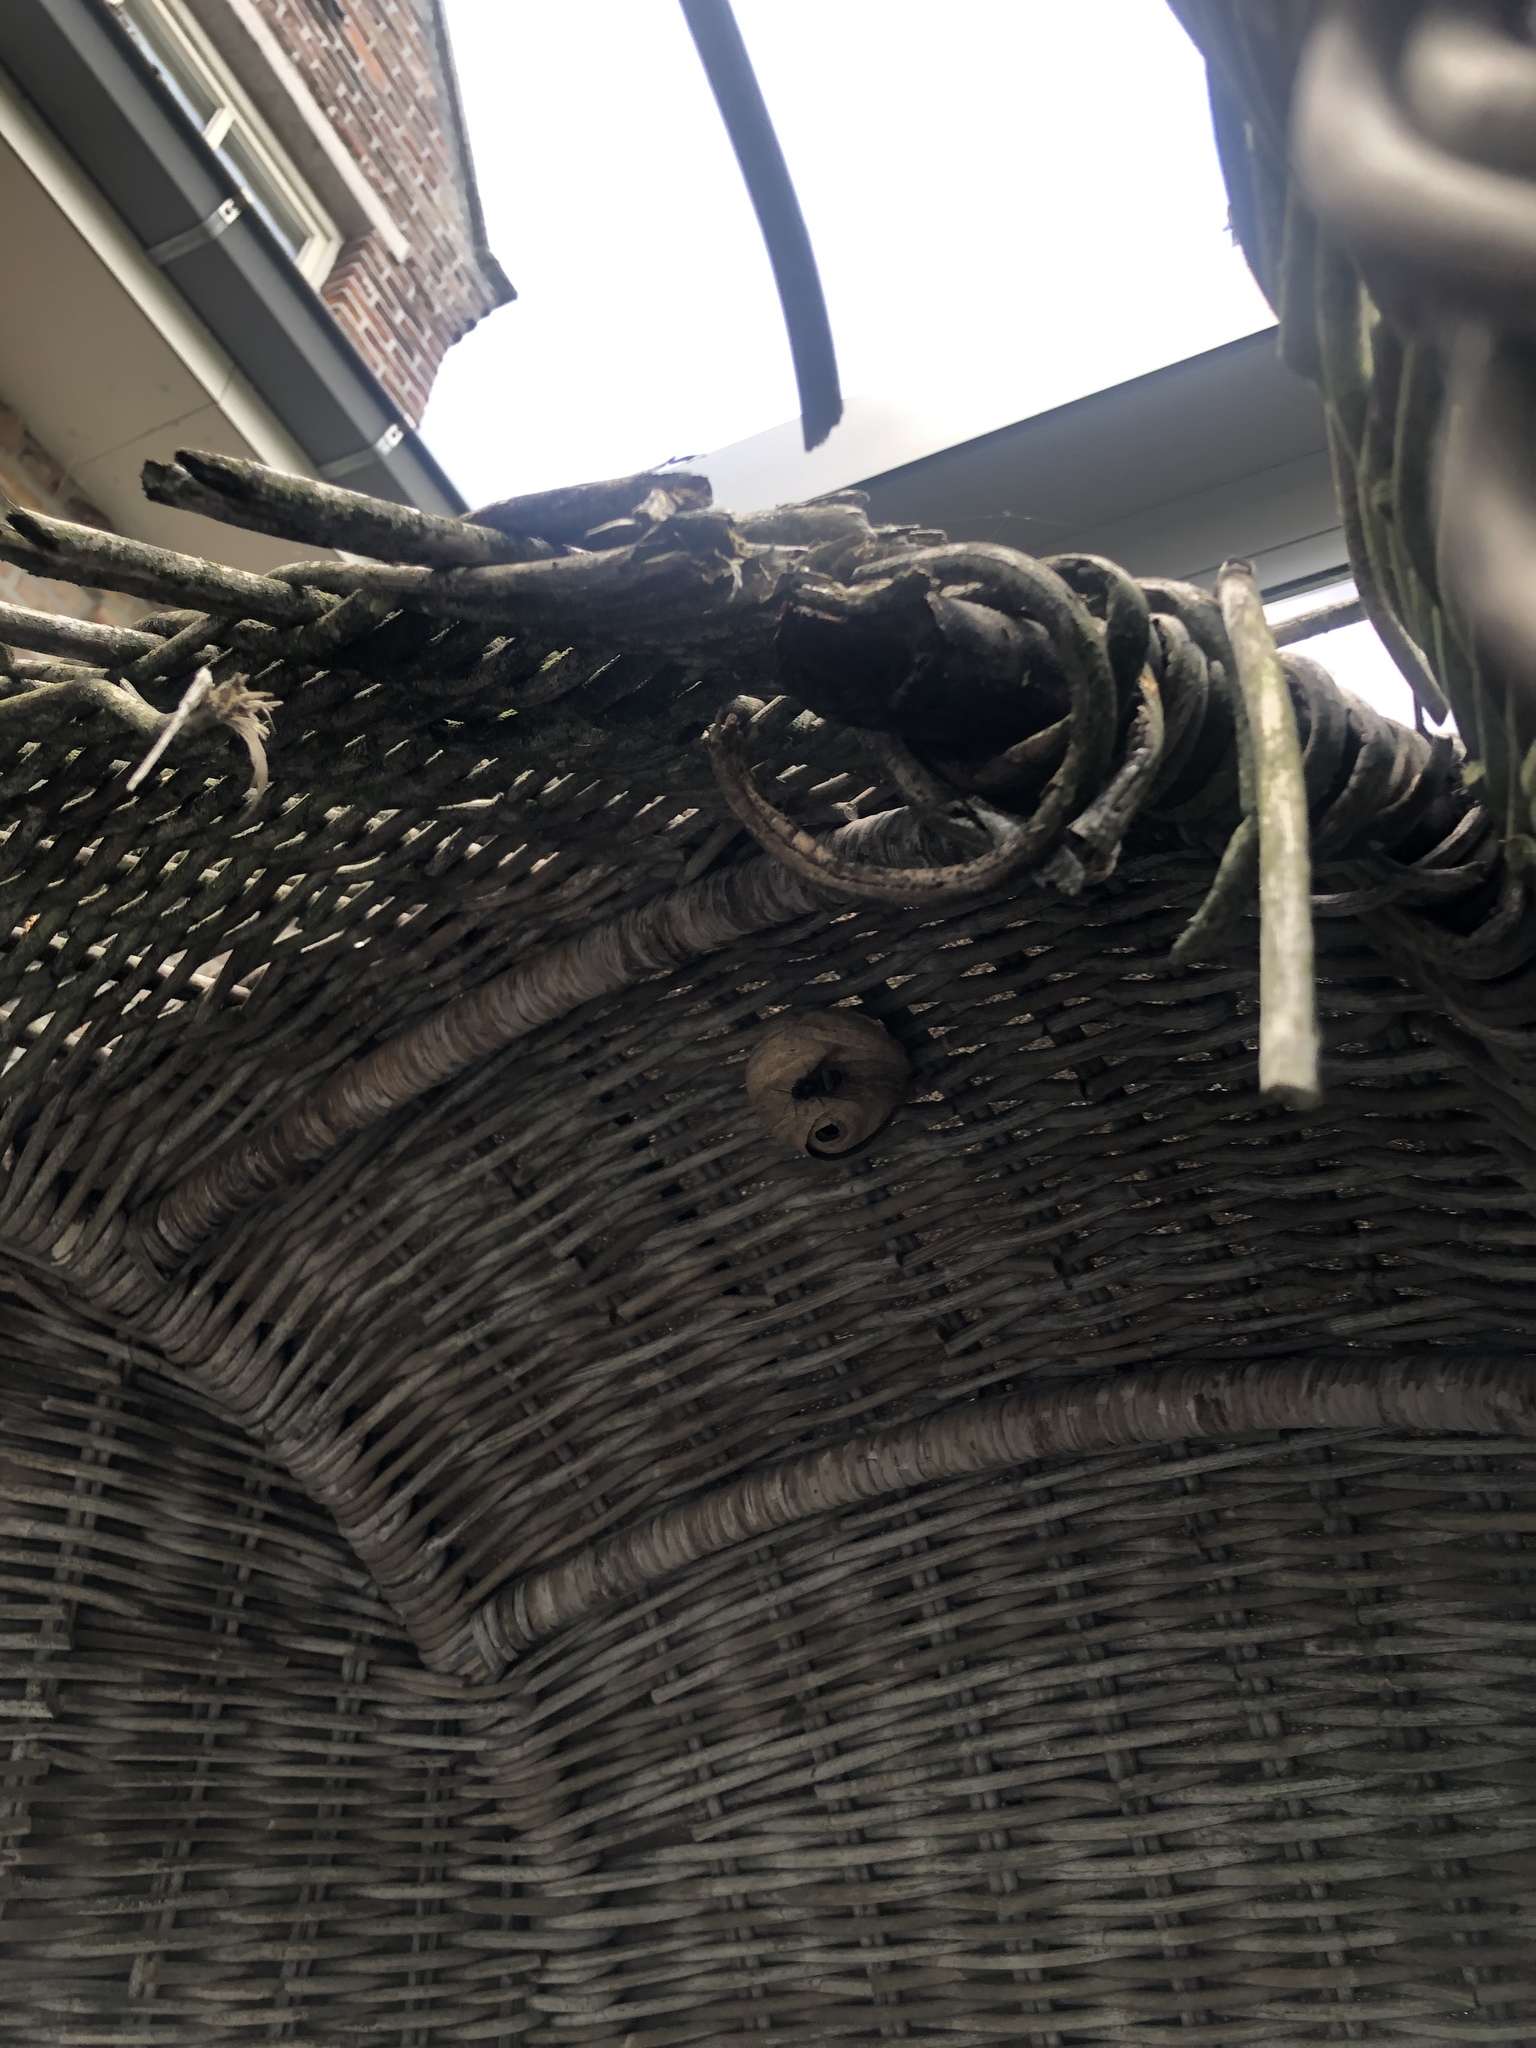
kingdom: Animalia
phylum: Arthropoda
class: Insecta
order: Hymenoptera
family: Vespidae
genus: Vespa
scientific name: Vespa velutina
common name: Asian hornet
